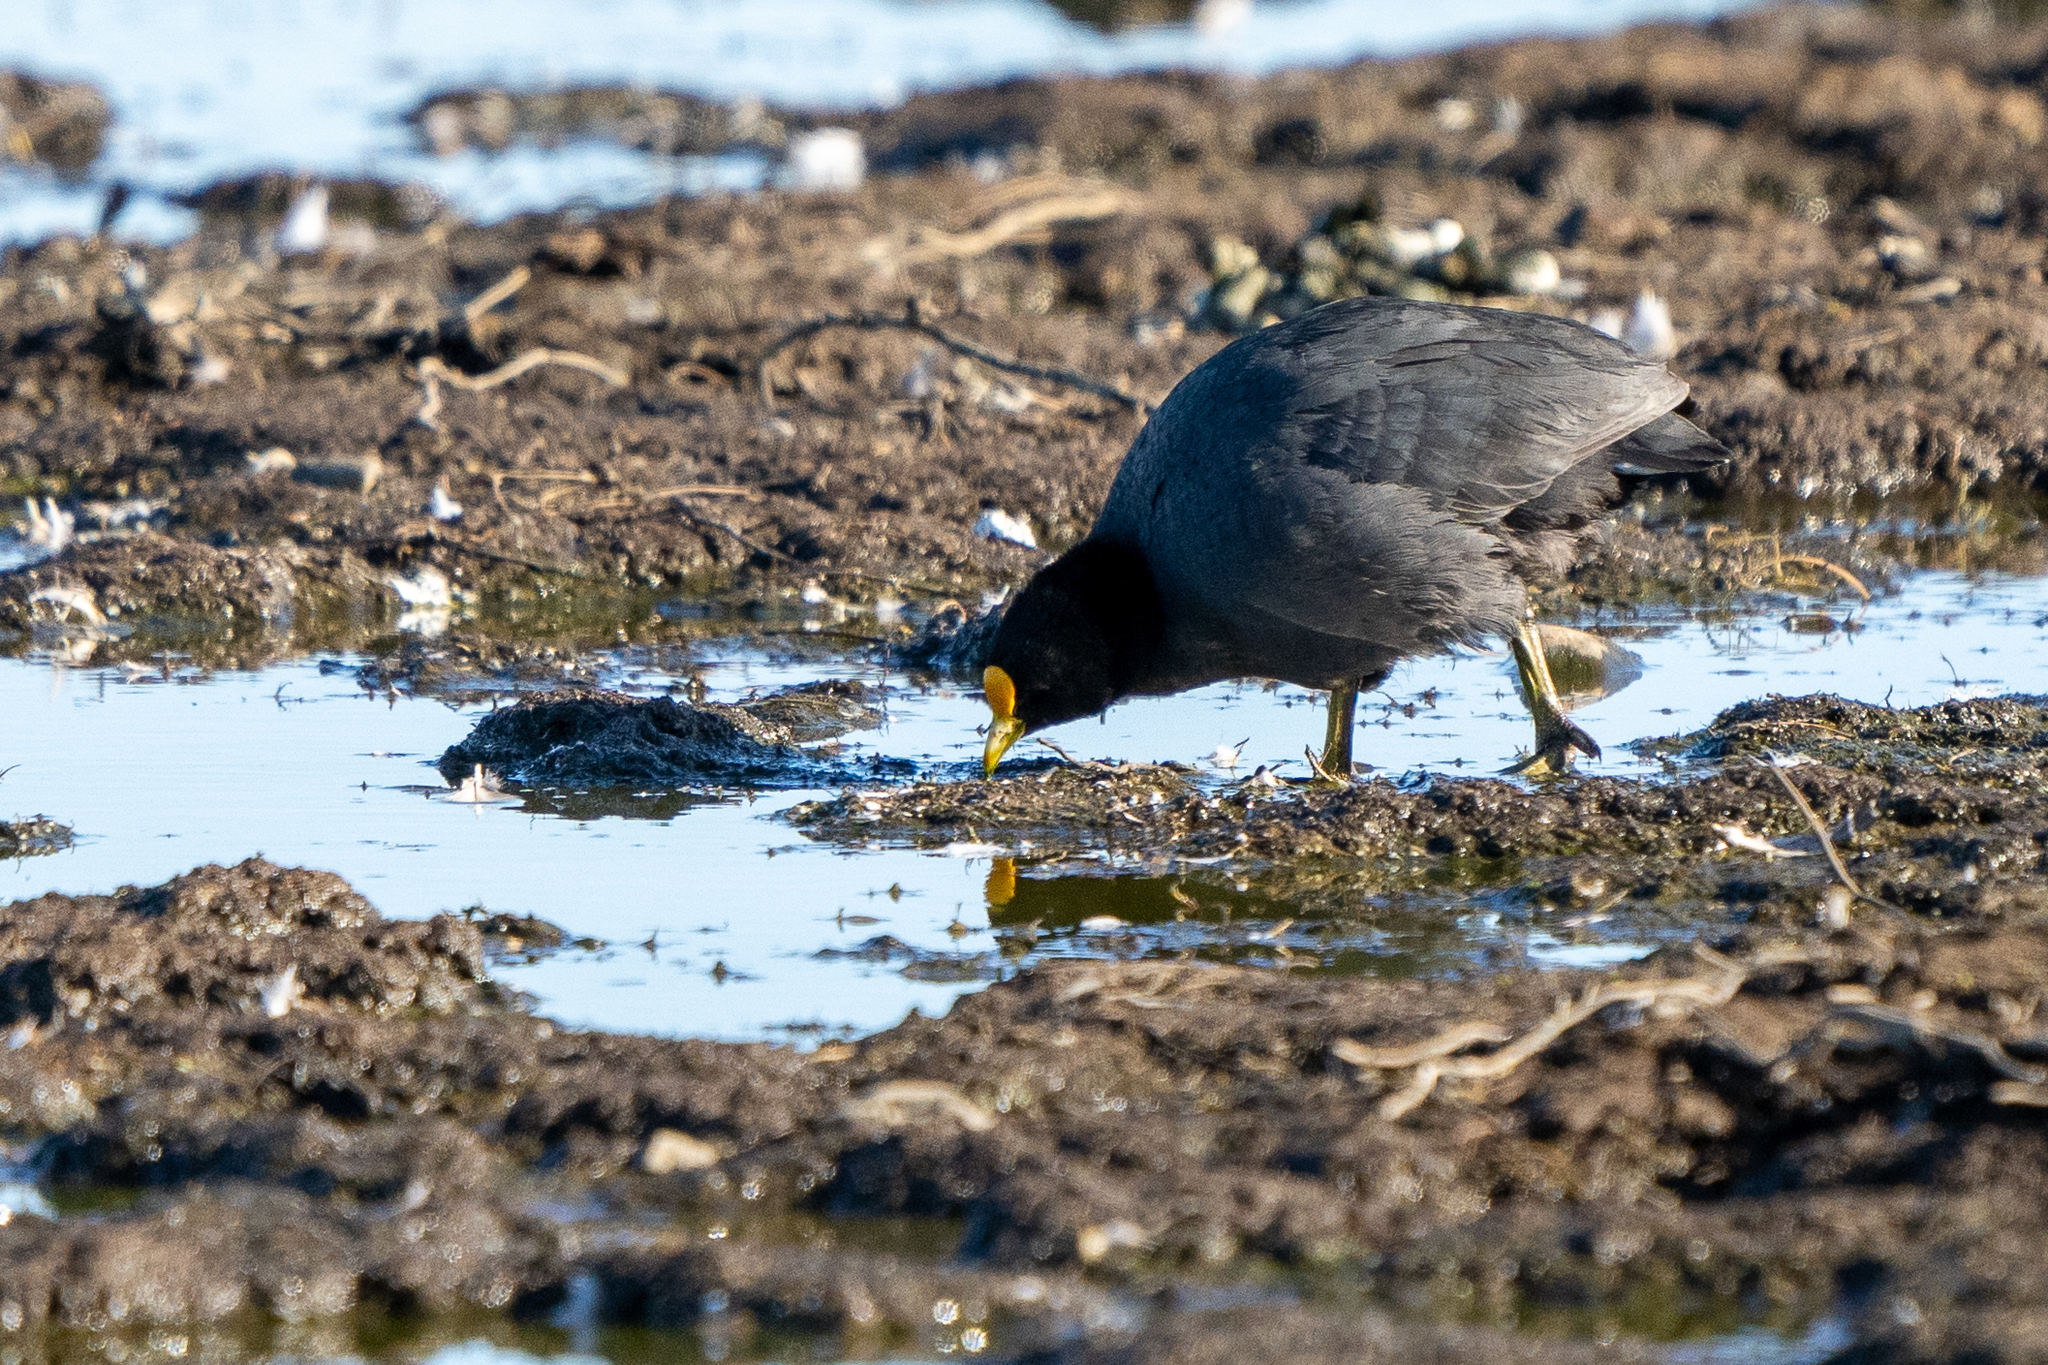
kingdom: Animalia
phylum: Chordata
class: Aves
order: Gruiformes
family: Rallidae
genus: Fulica
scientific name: Fulica leucoptera
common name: White-winged coot
